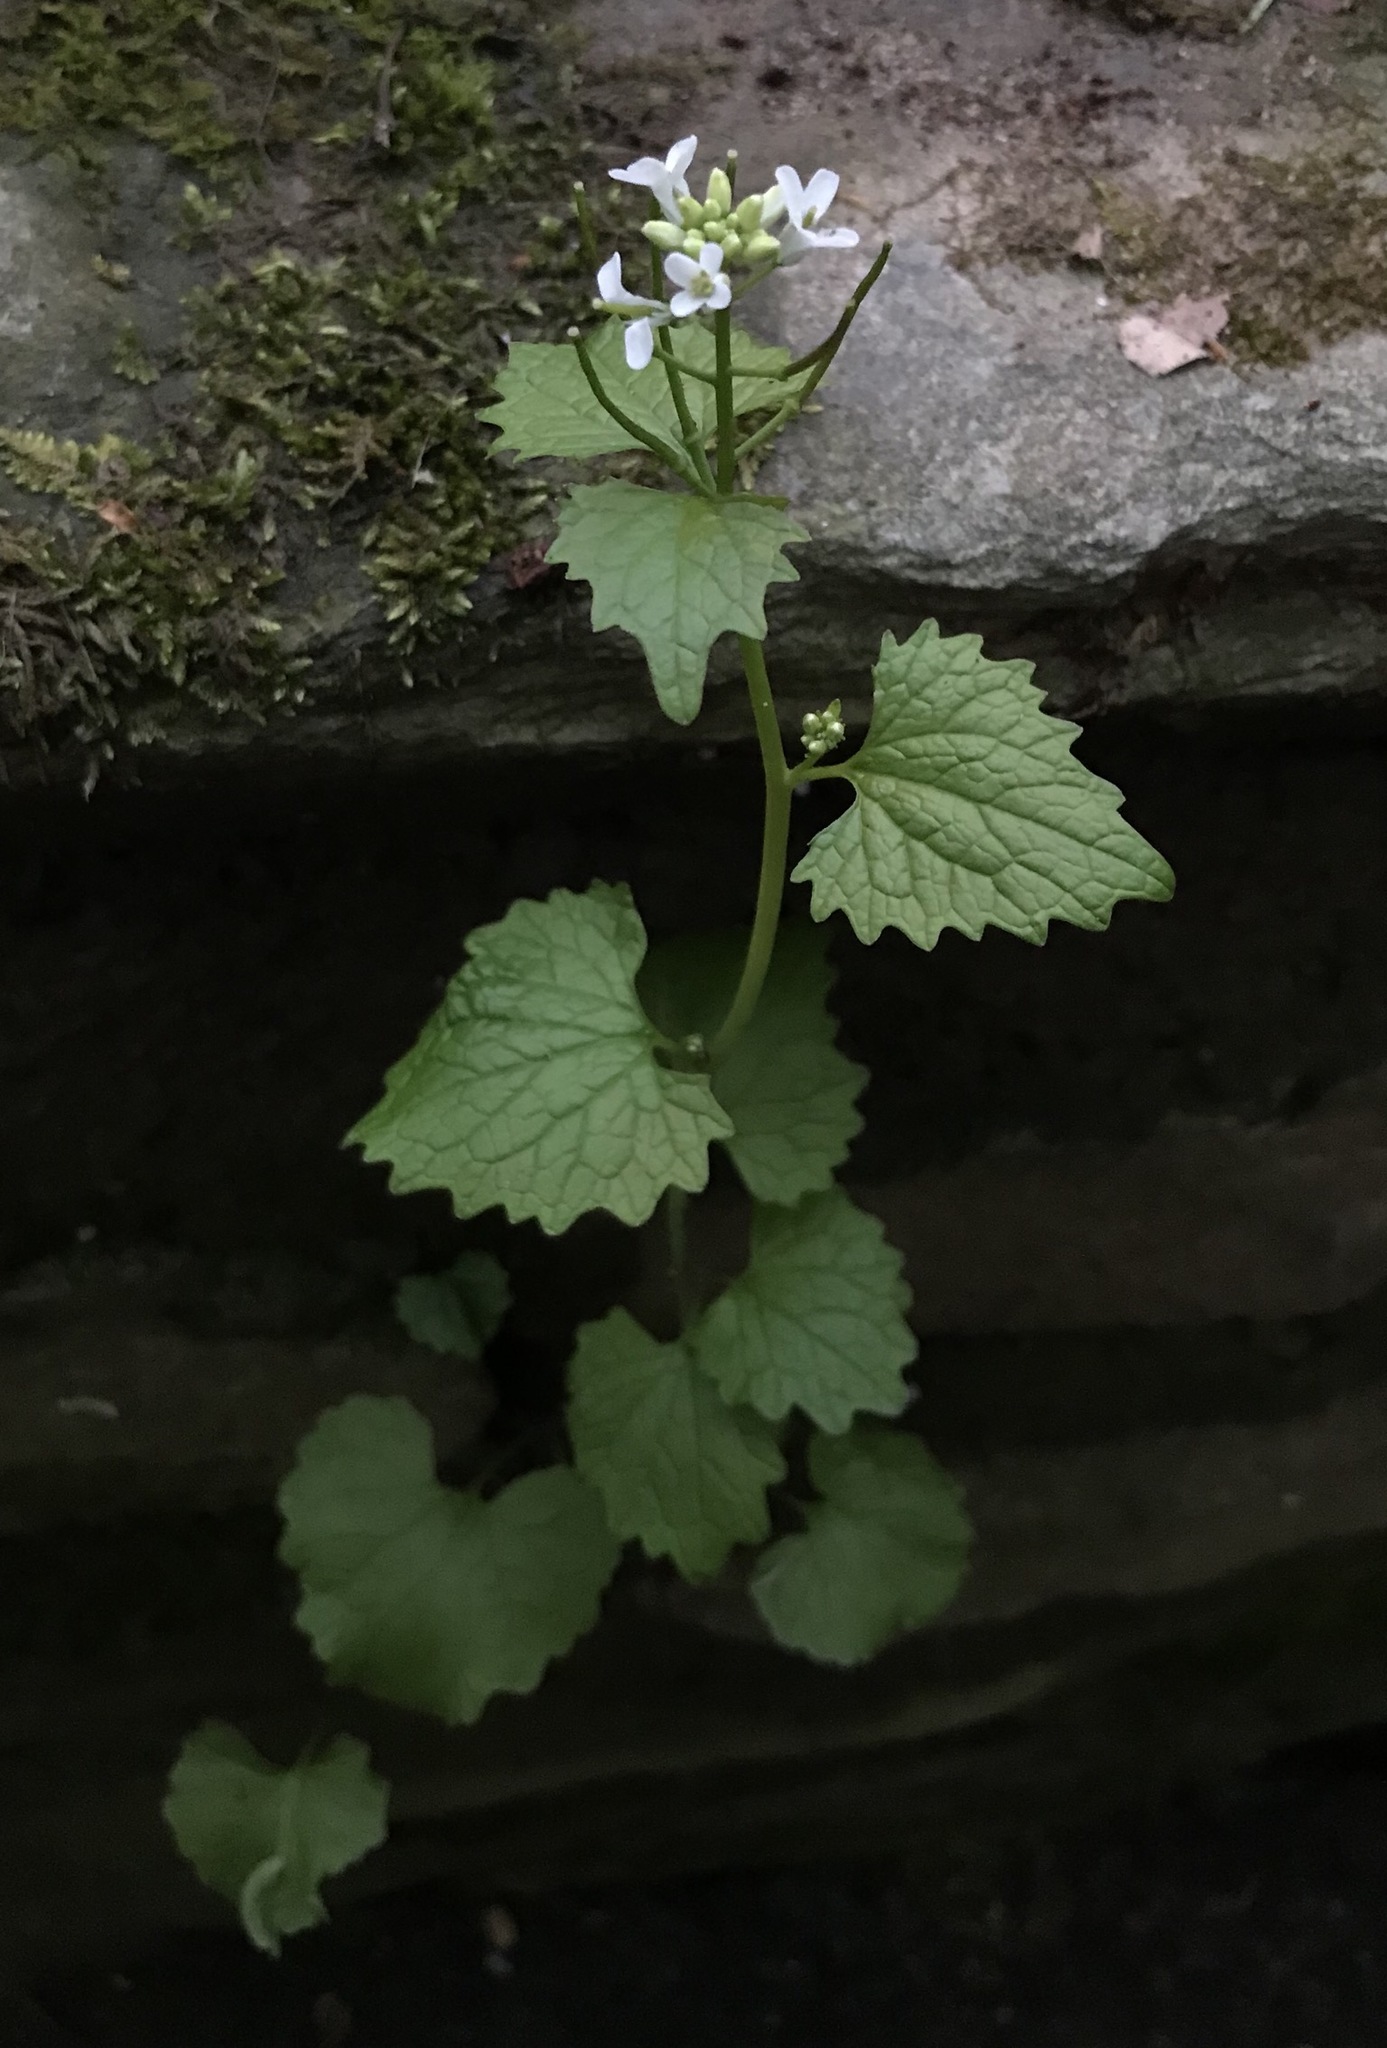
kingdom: Plantae
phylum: Tracheophyta
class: Magnoliopsida
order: Brassicales
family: Brassicaceae
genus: Alliaria
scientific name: Alliaria petiolata
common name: Garlic mustard
